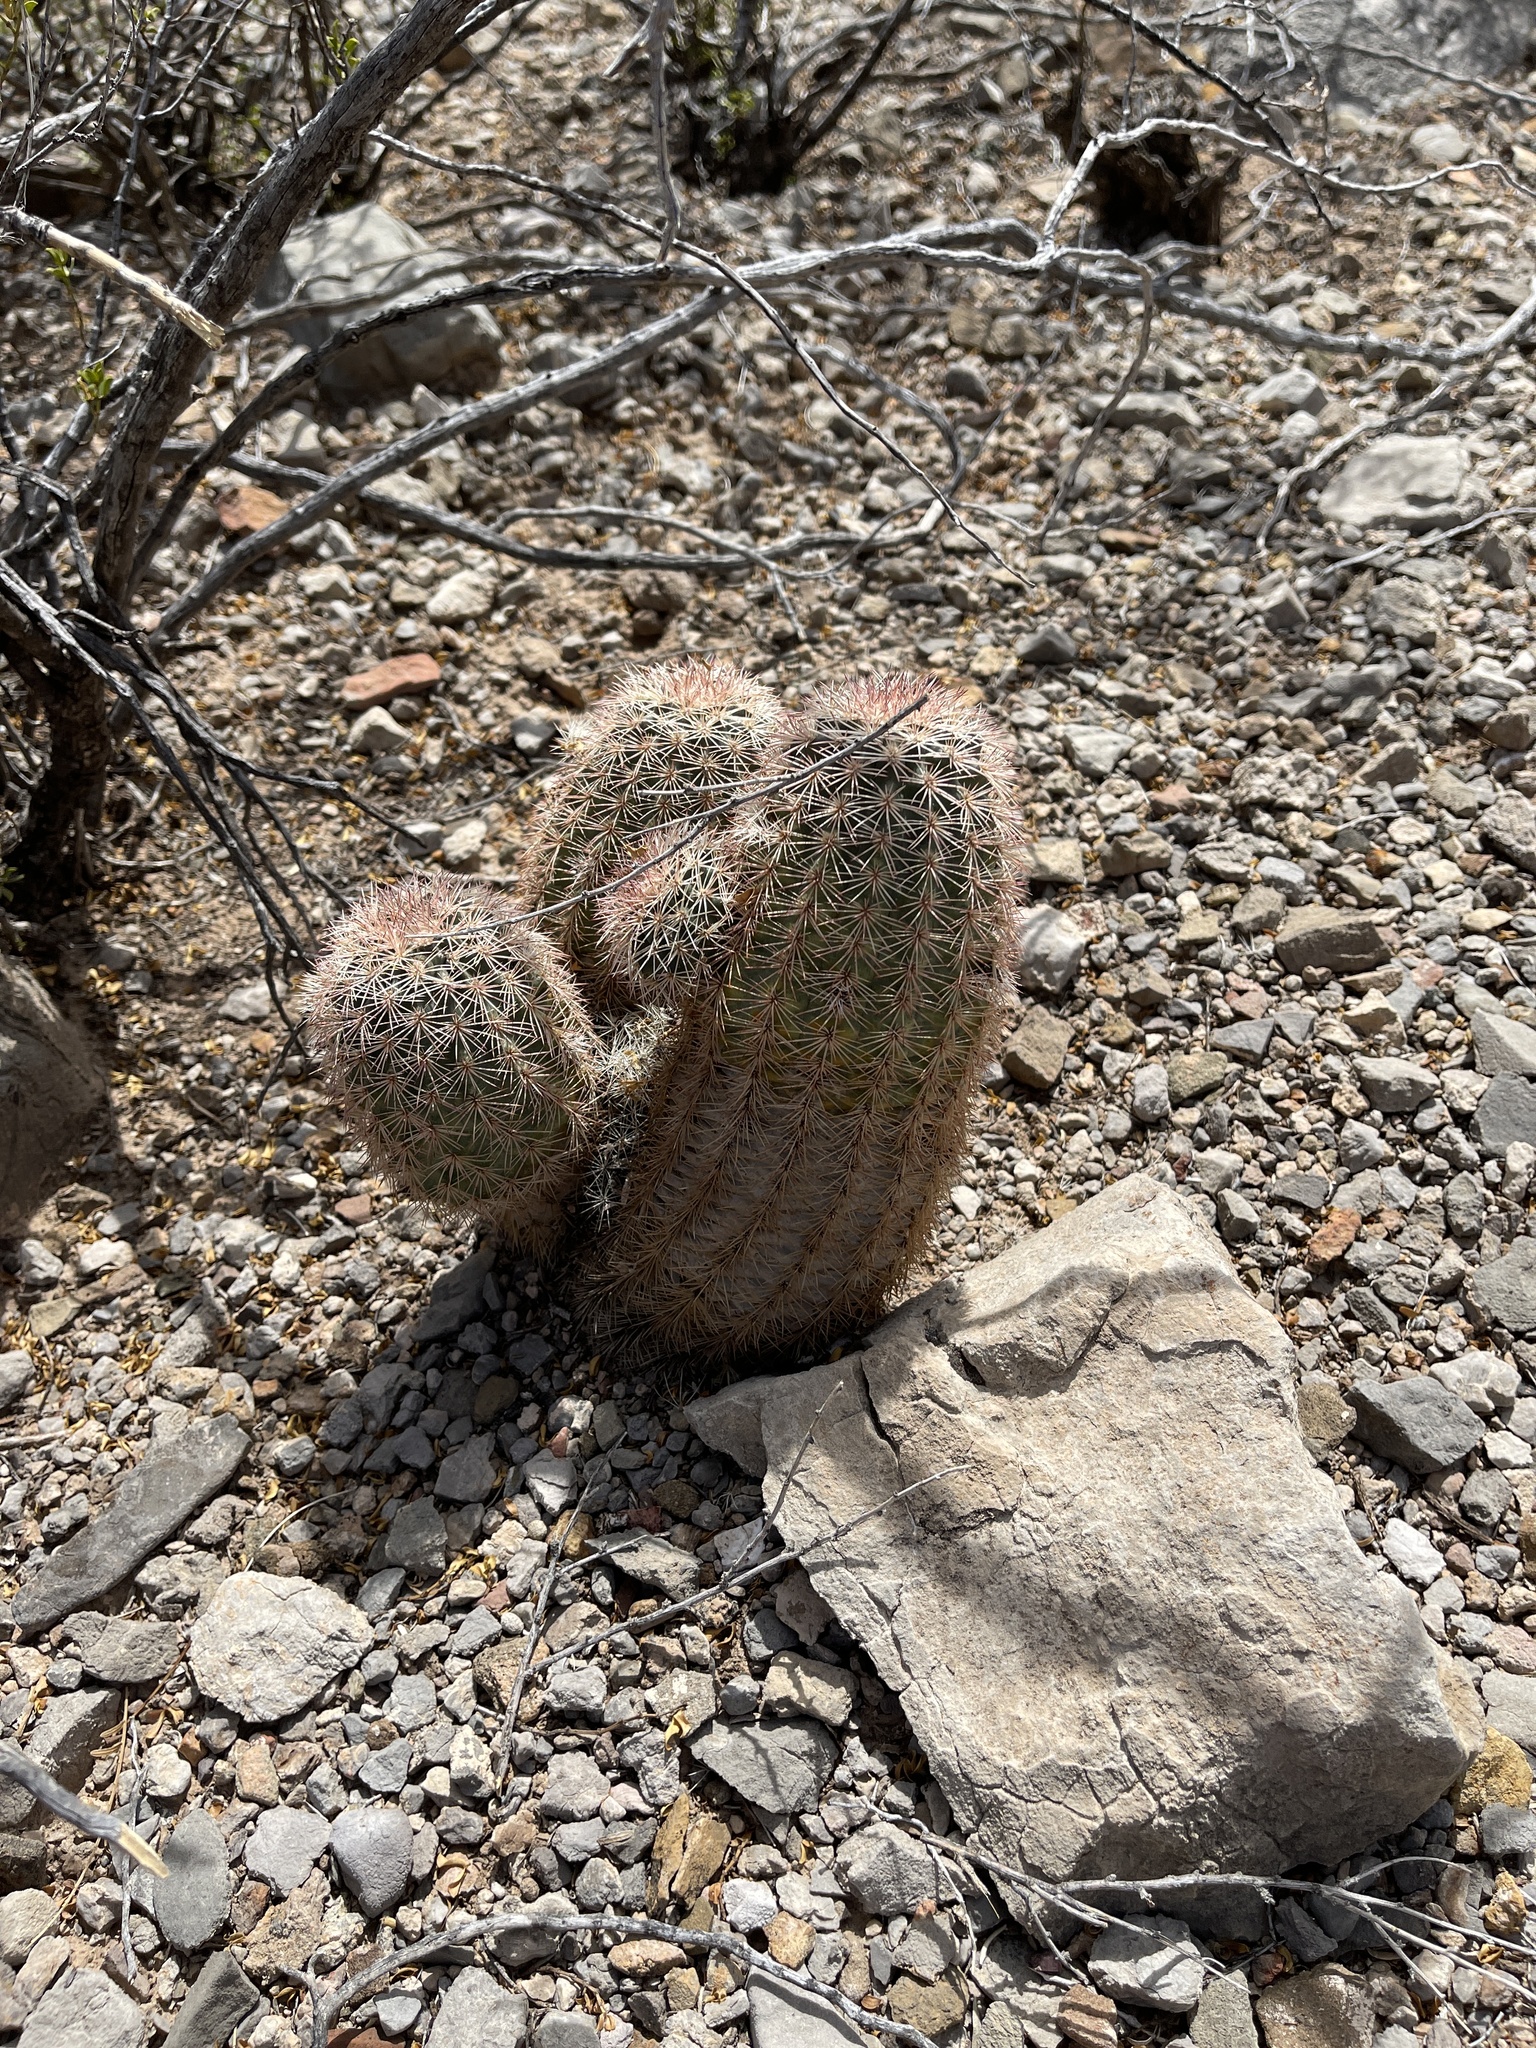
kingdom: Plantae
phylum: Tracheophyta
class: Magnoliopsida
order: Caryophyllales
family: Cactaceae
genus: Echinocereus
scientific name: Echinocereus dasyacanthus
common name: Spiny hedgehog cactus
